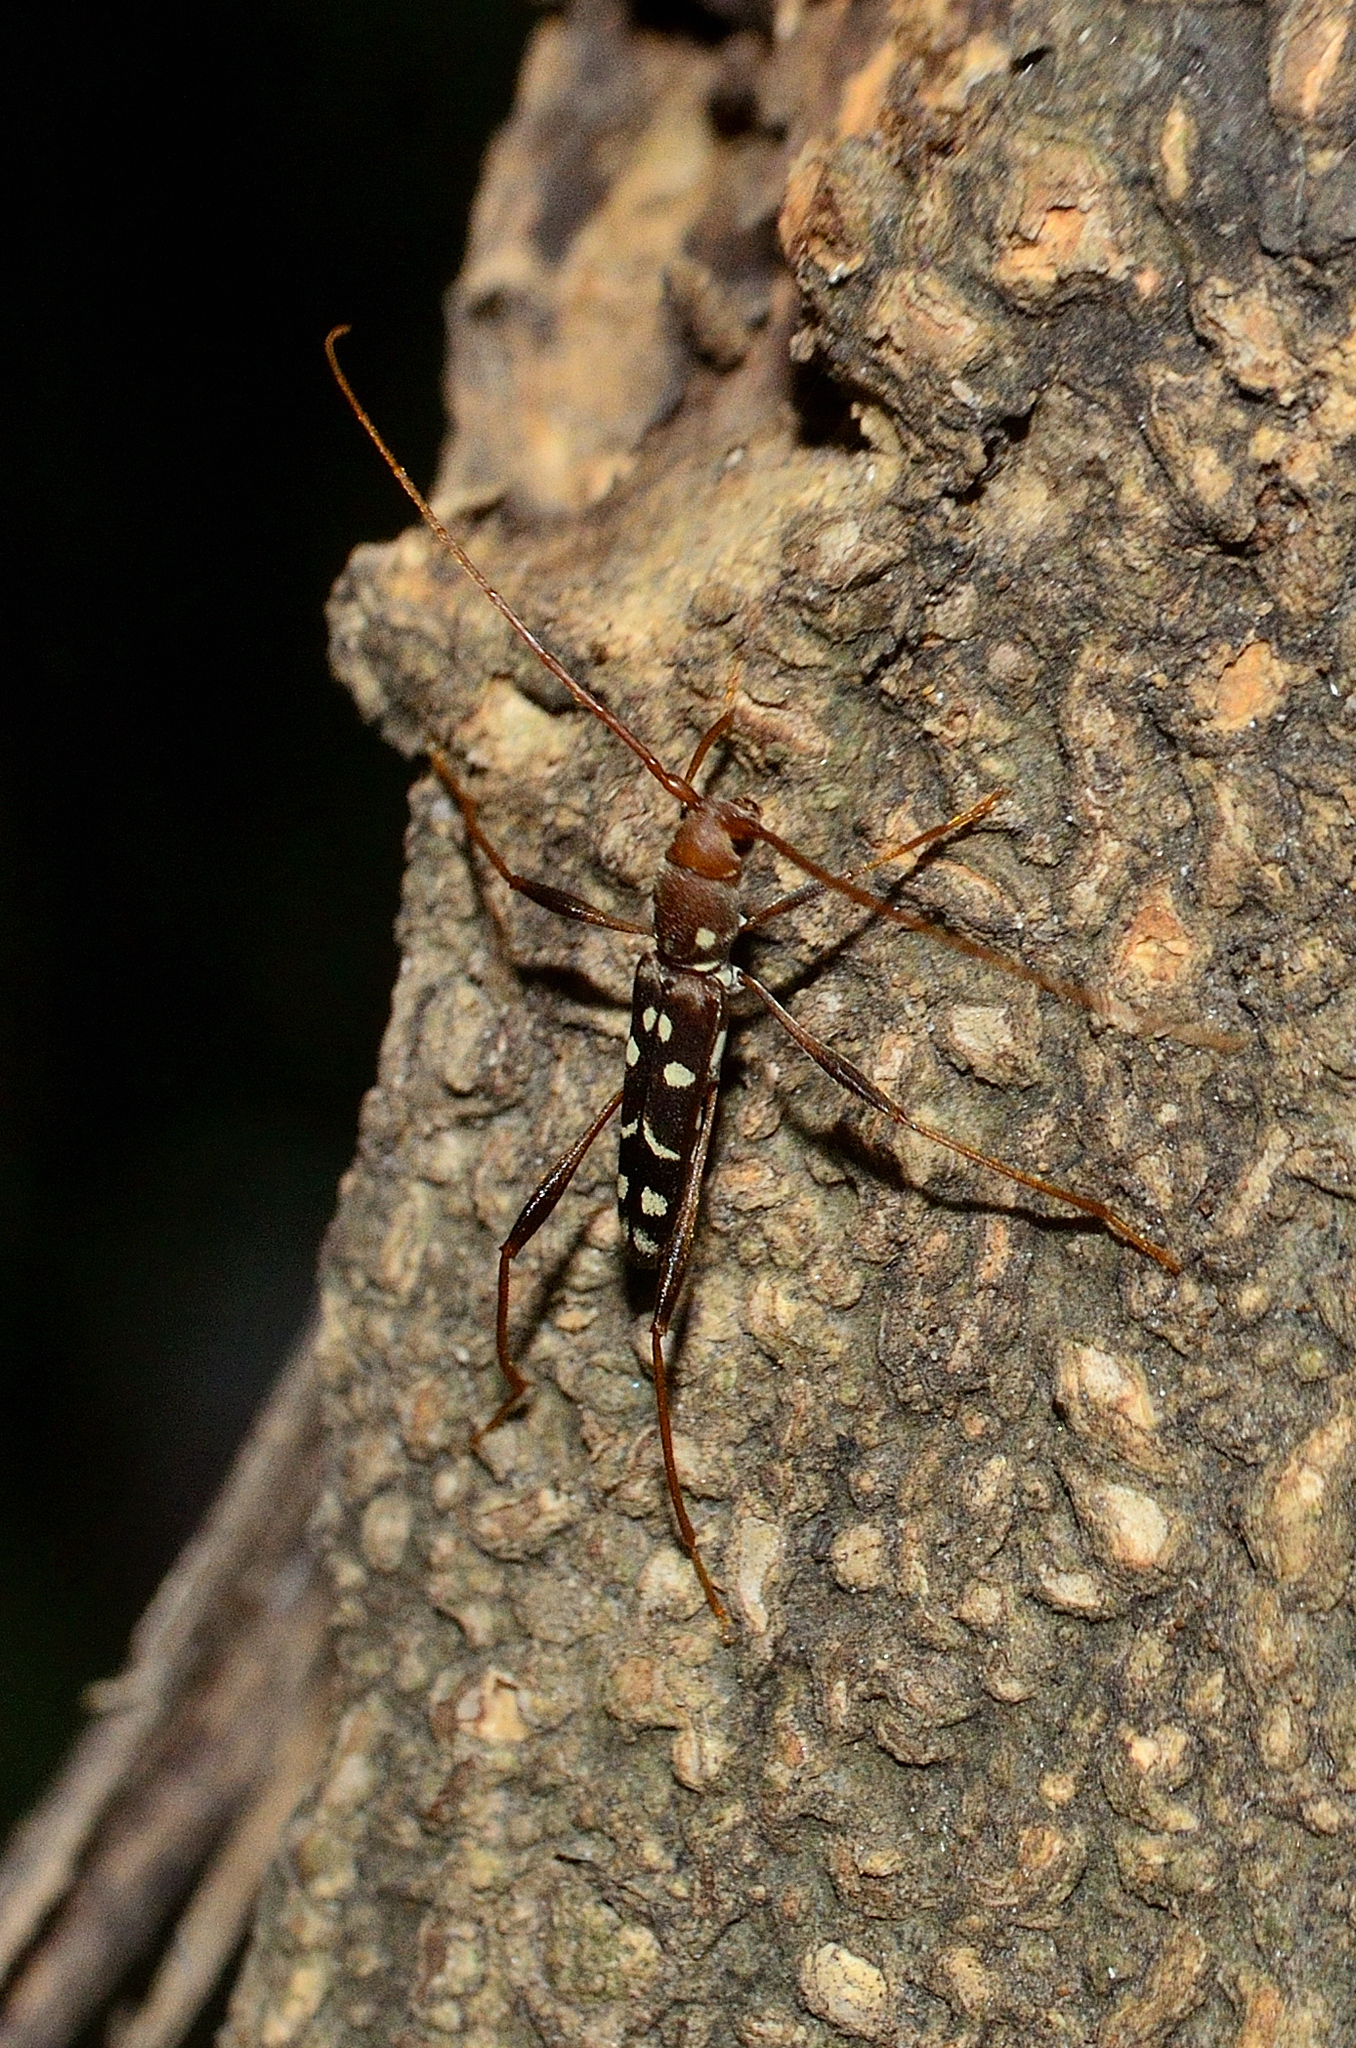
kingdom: Animalia
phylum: Arthropoda
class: Insecta
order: Coleoptera
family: Cerambycidae
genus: Clytocera
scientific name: Clytocera chionospila
